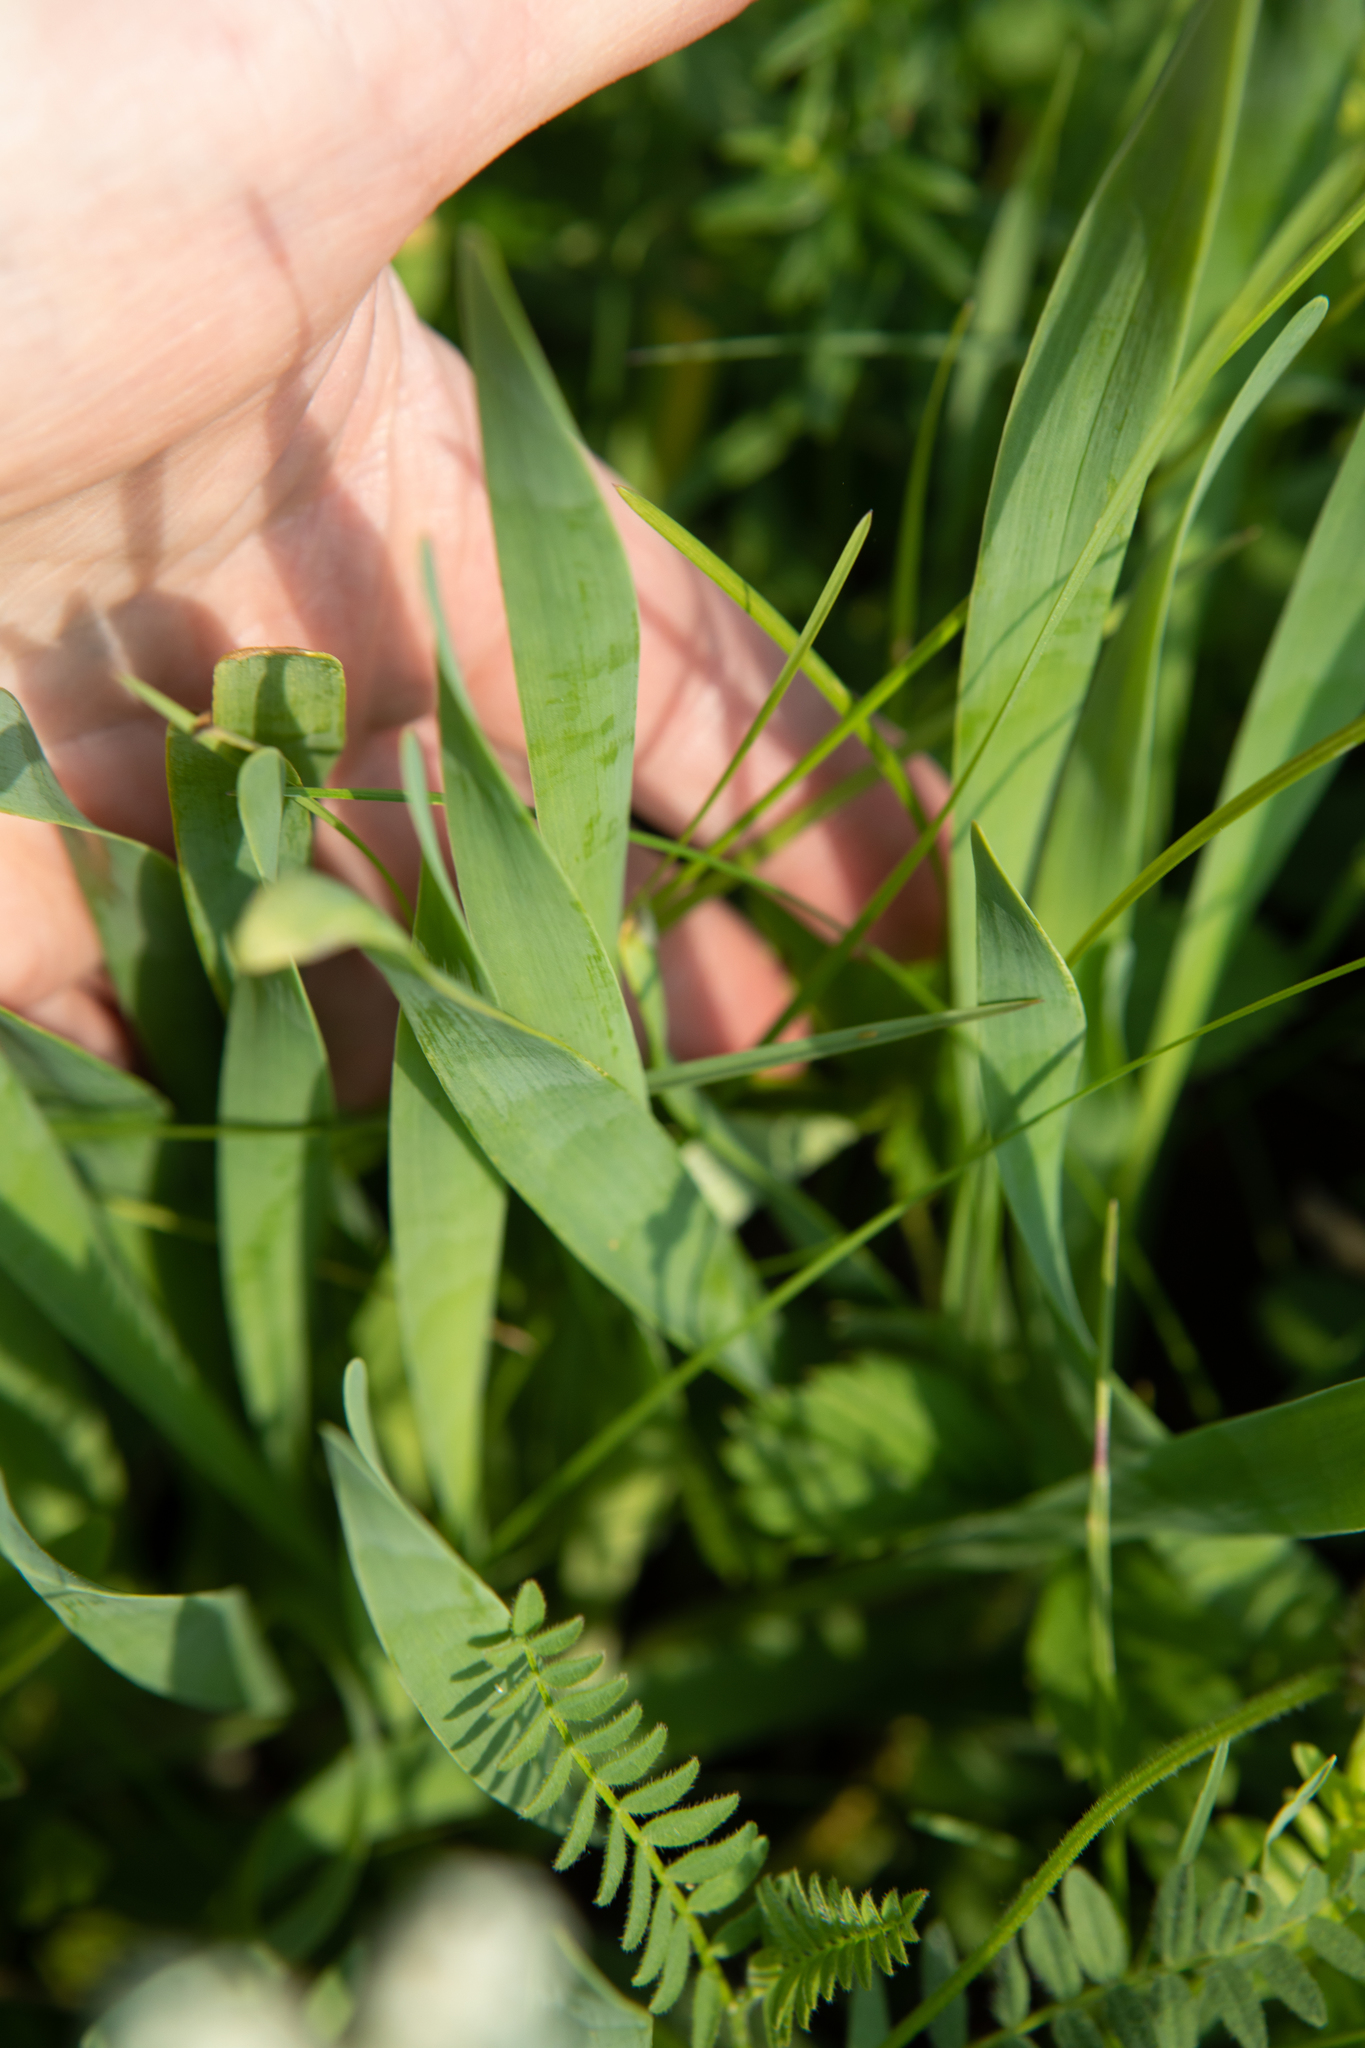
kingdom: Plantae
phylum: Tracheophyta
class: Liliopsida
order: Asparagales
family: Amaryllidaceae
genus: Allium
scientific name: Allium nutans
